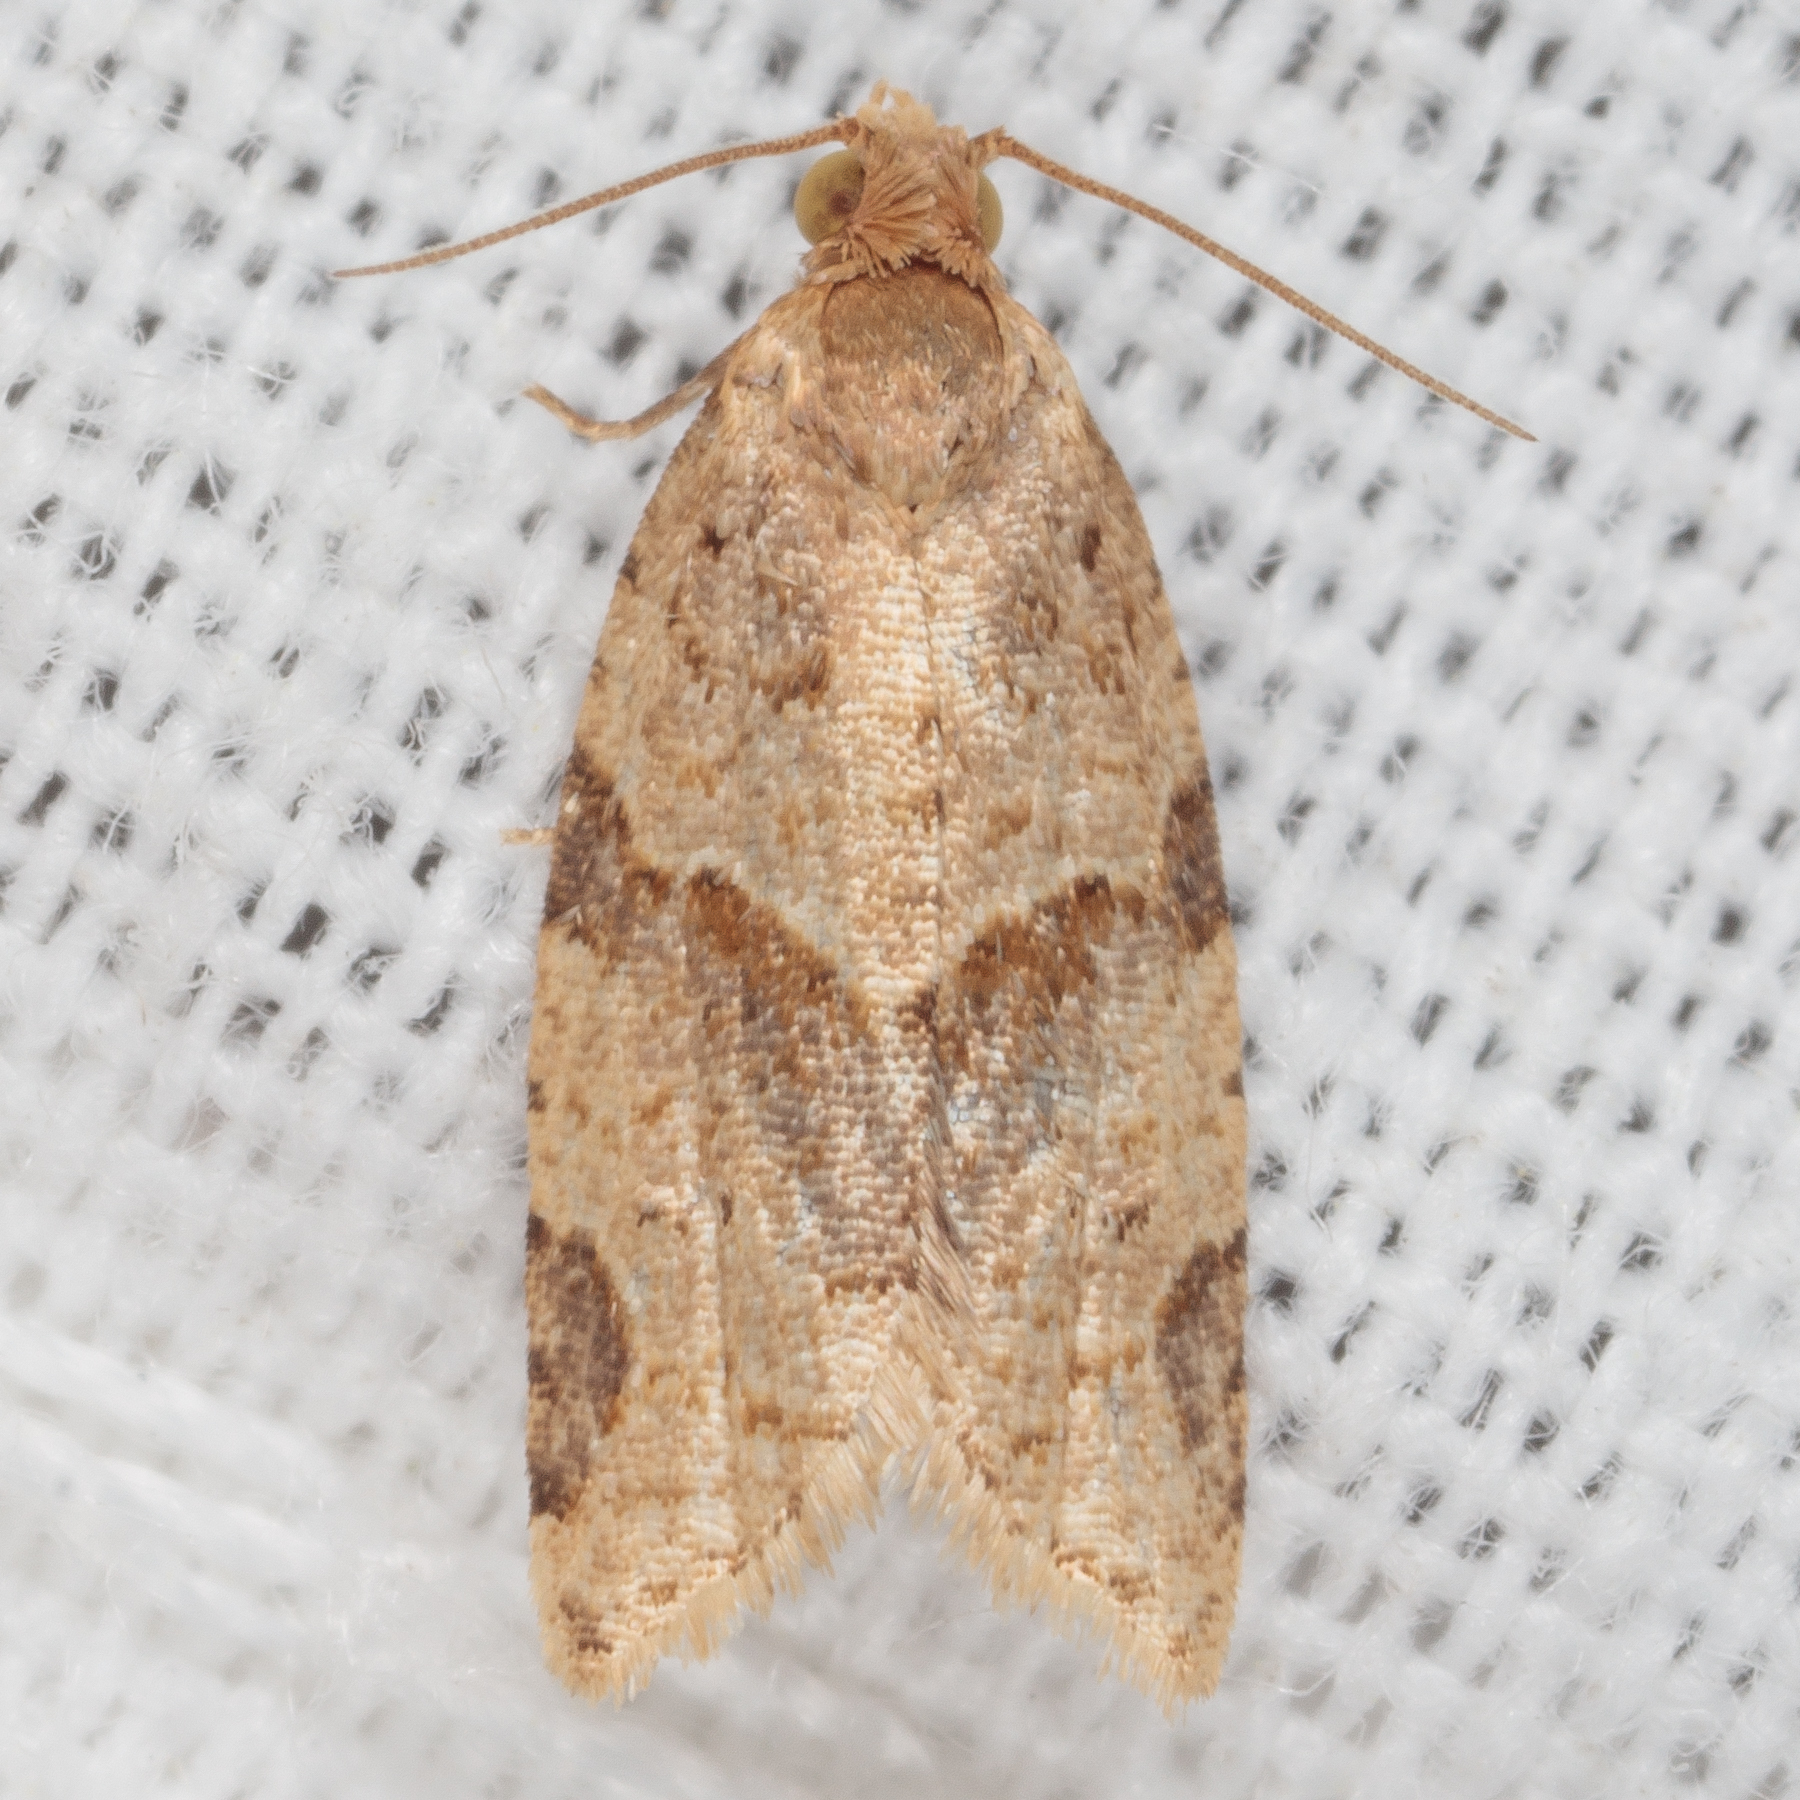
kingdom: Animalia
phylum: Arthropoda
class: Insecta
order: Lepidoptera
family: Tortricidae
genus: Clepsis
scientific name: Clepsis peritana
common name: Garden tortrix
